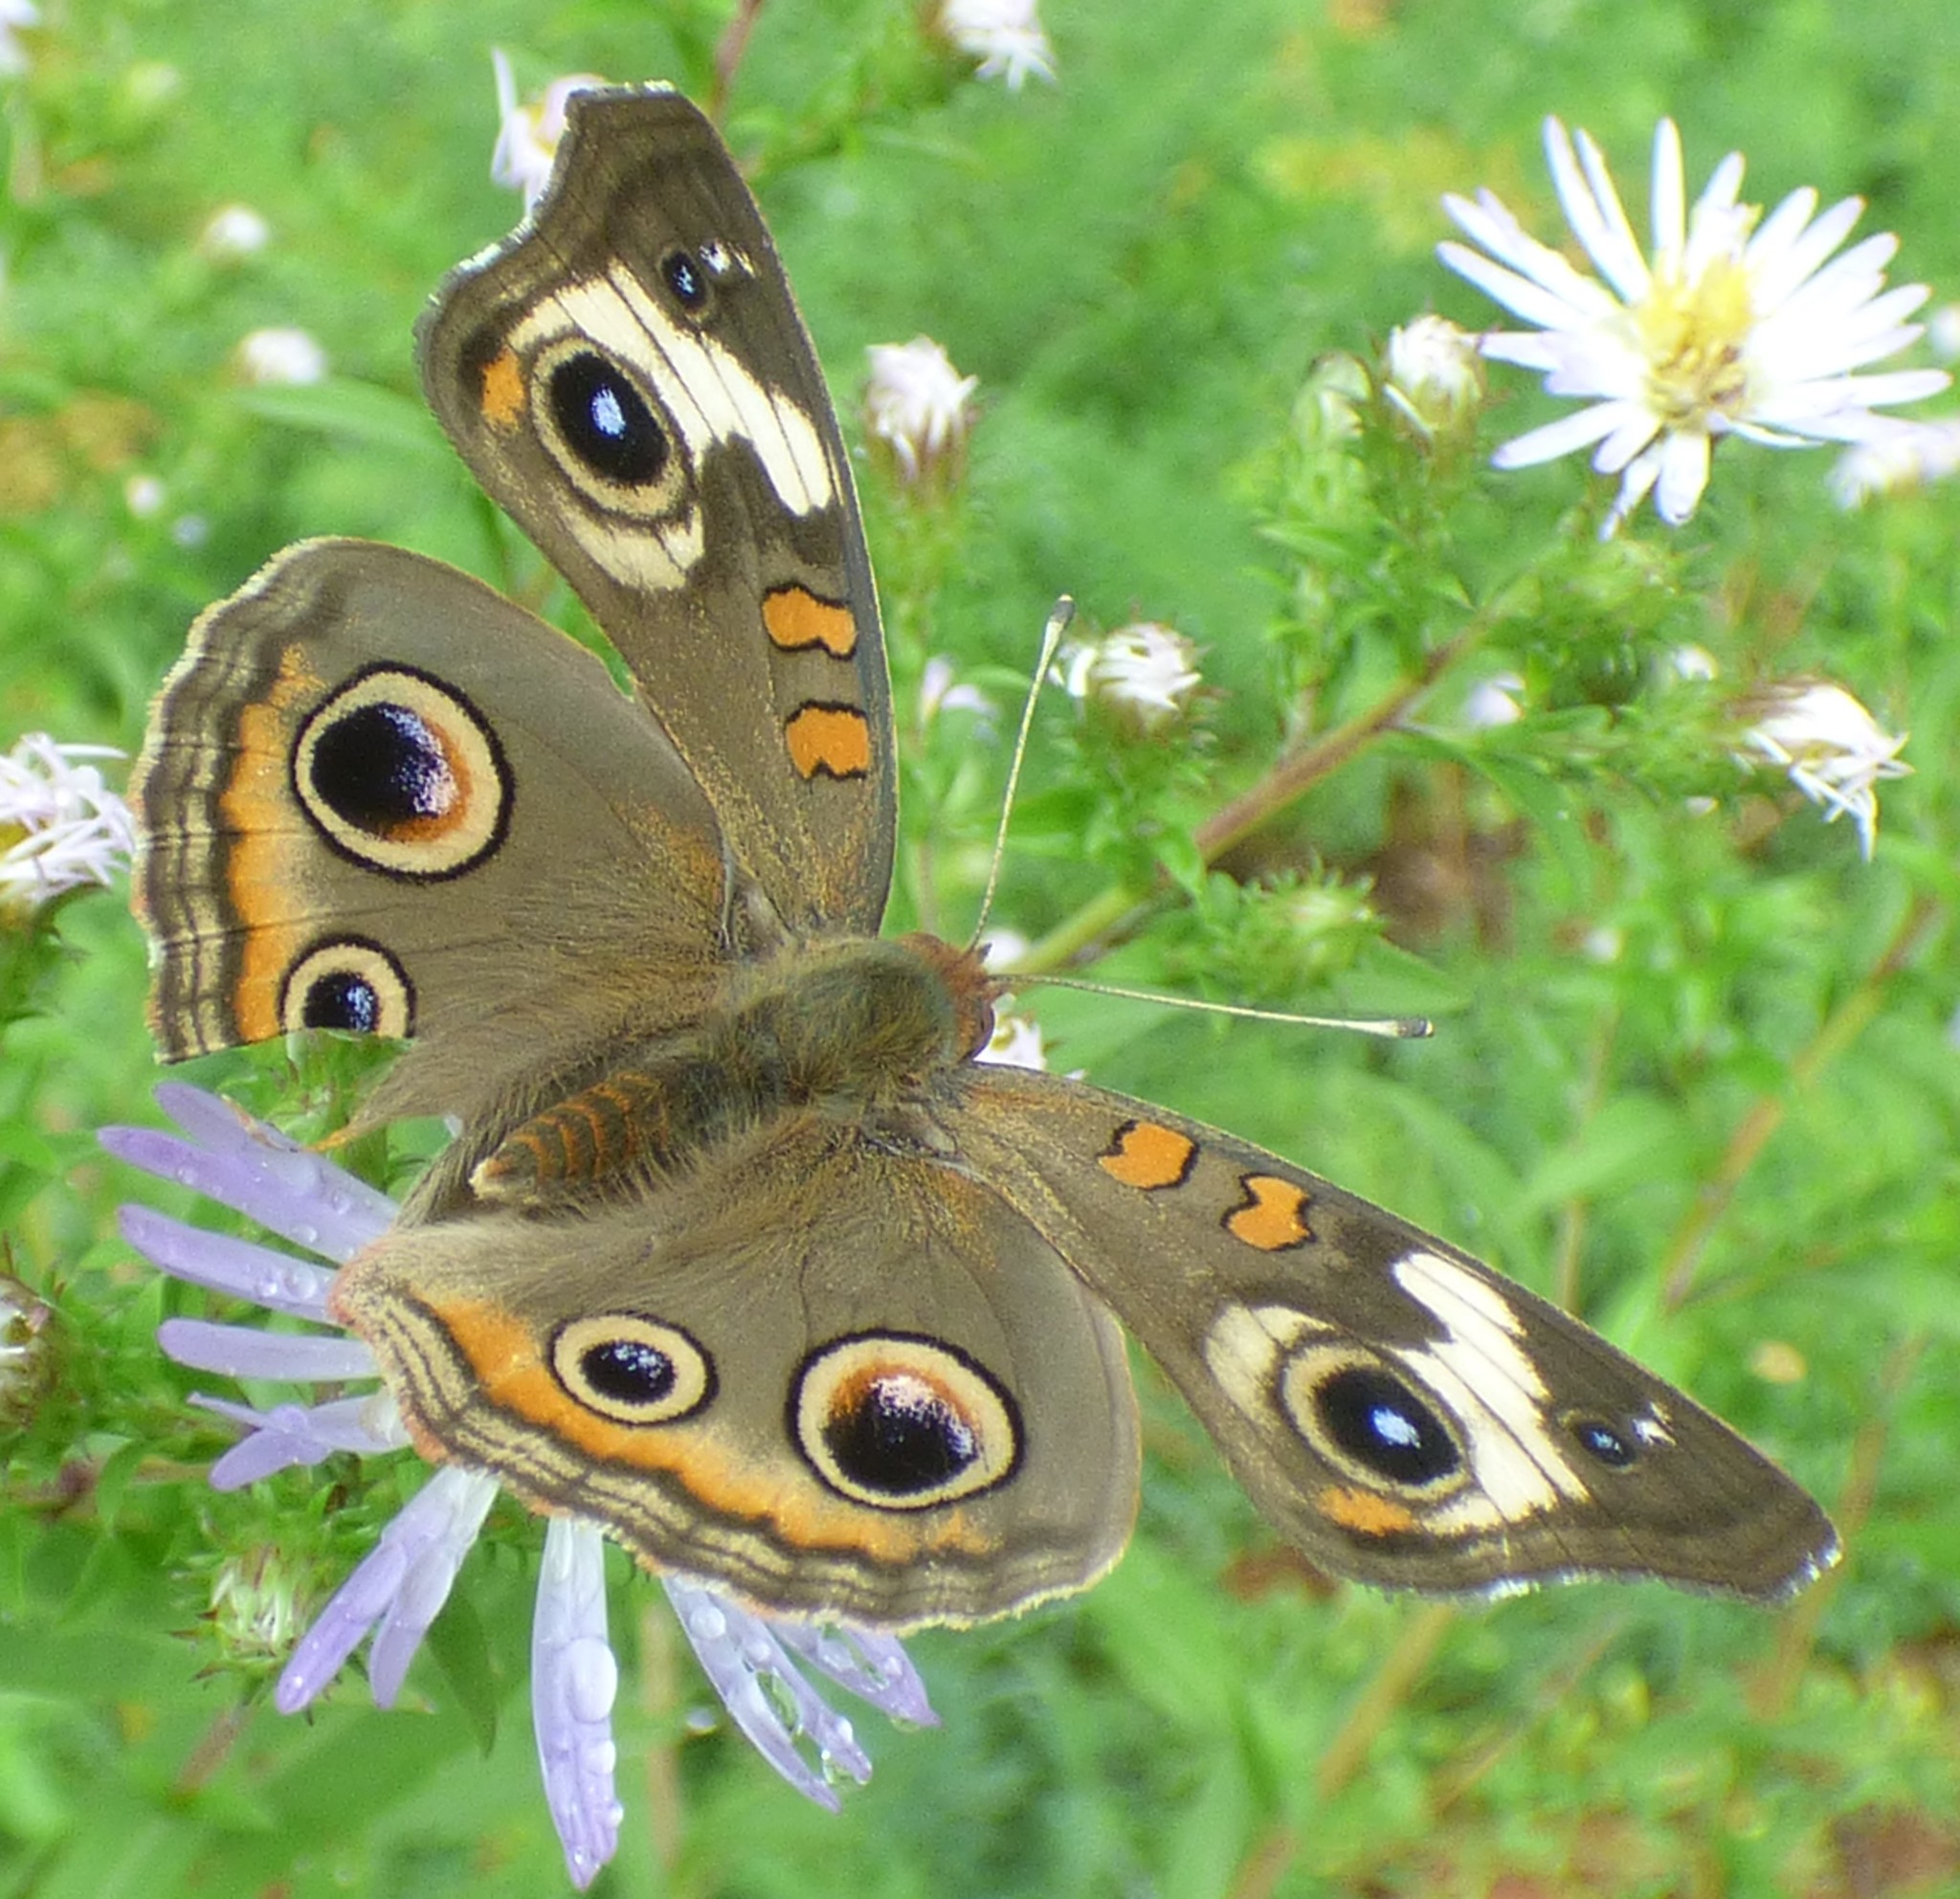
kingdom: Animalia
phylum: Arthropoda
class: Insecta
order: Lepidoptera
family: Nymphalidae
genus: Junonia
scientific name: Junonia coenia
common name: Common buckeye
